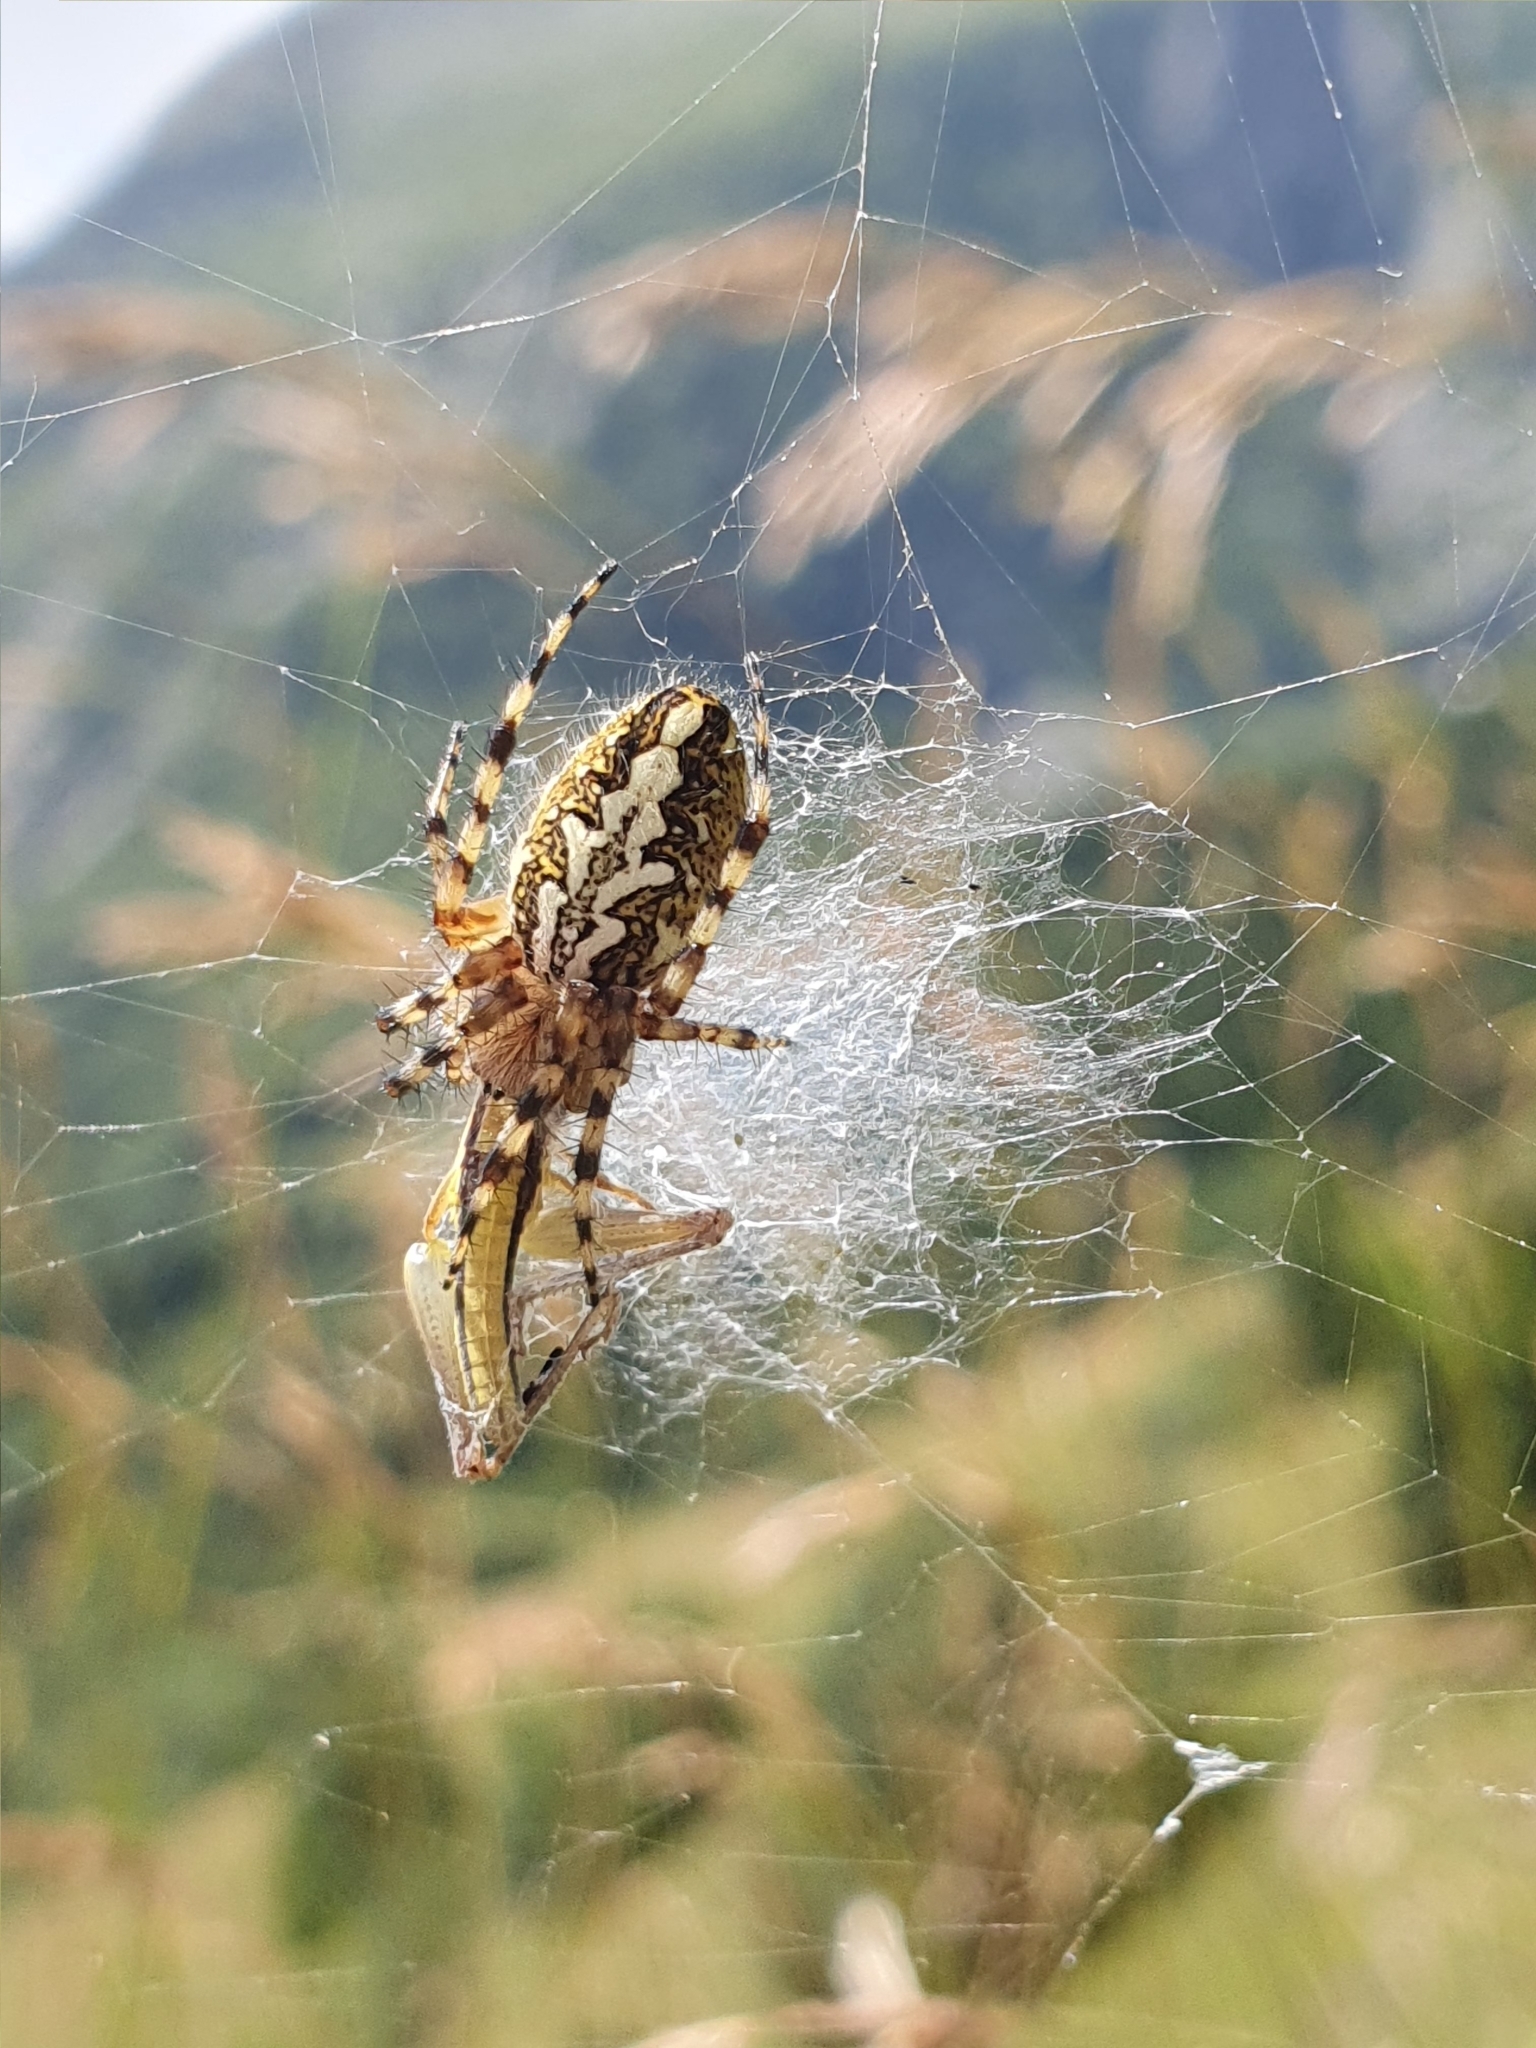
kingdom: Animalia
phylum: Arthropoda
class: Arachnida
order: Araneae
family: Araneidae
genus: Aculepeira
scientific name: Aculepeira ceropegia
